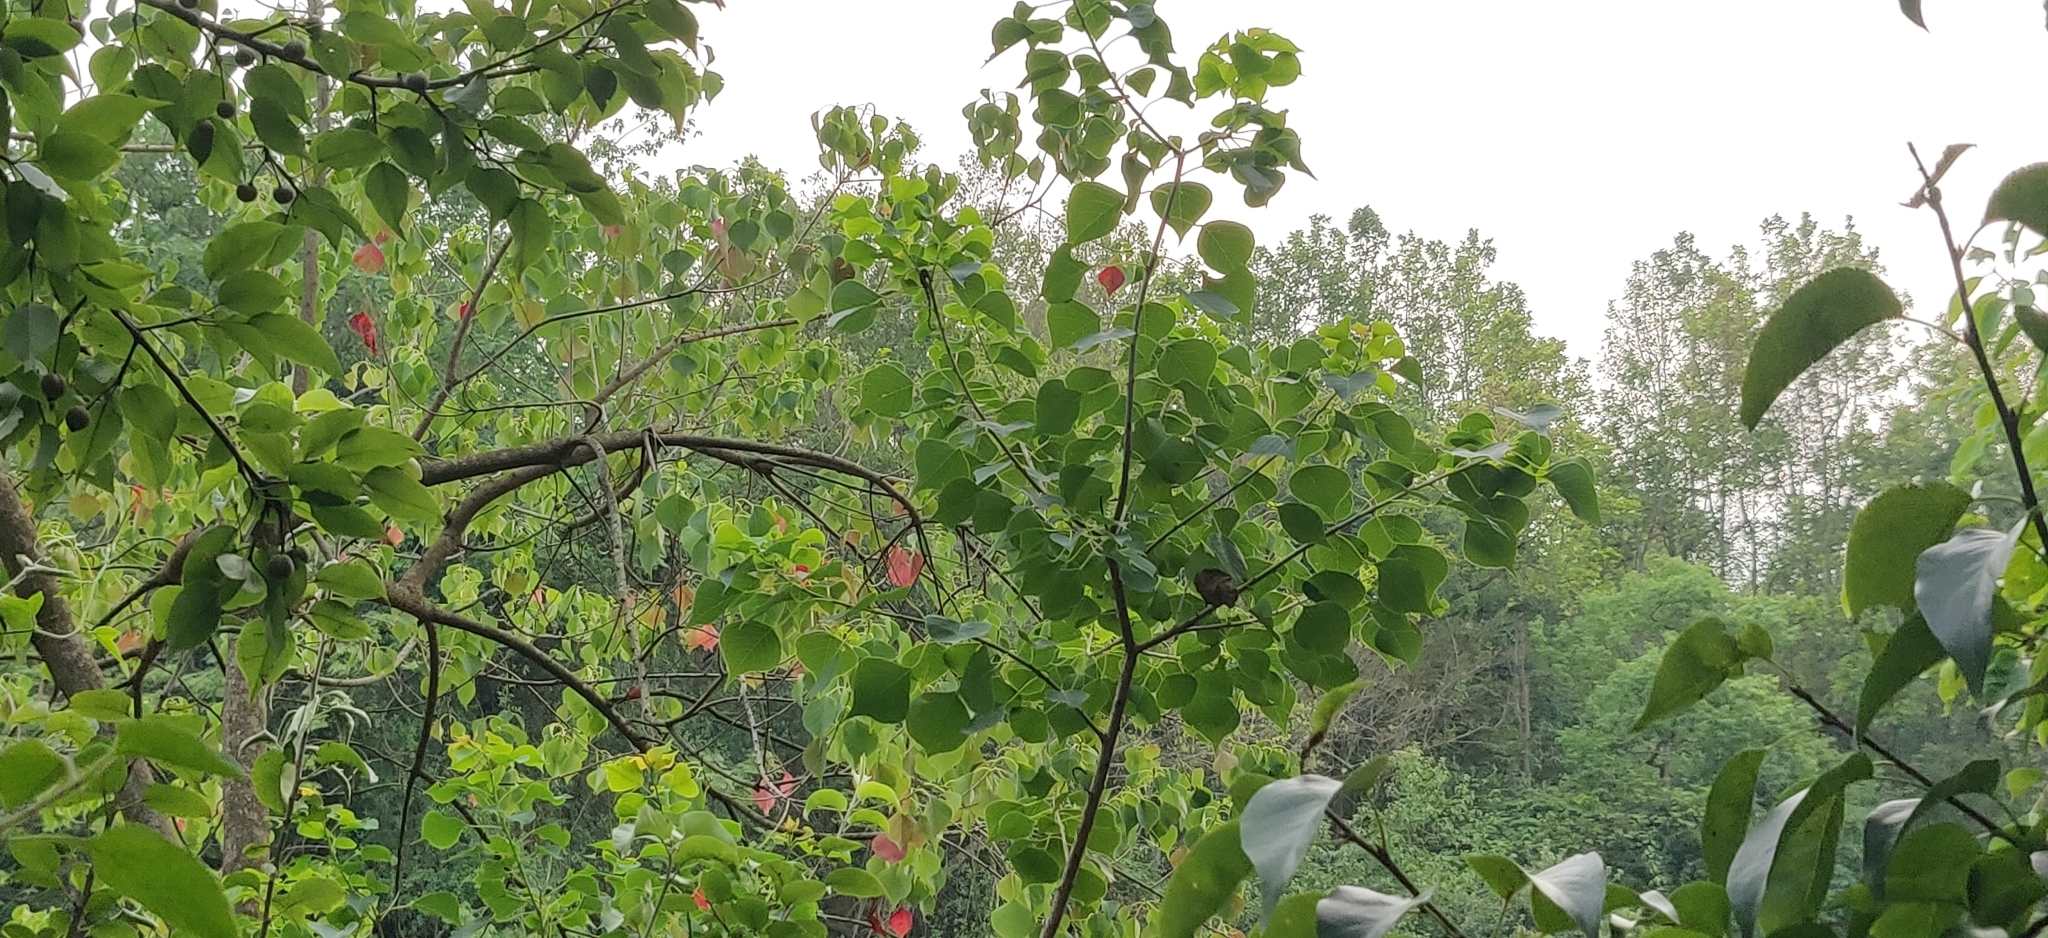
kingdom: Plantae
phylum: Tracheophyta
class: Magnoliopsida
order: Malpighiales
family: Euphorbiaceae
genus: Triadica
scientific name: Triadica sebifera
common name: Chinese tallow
